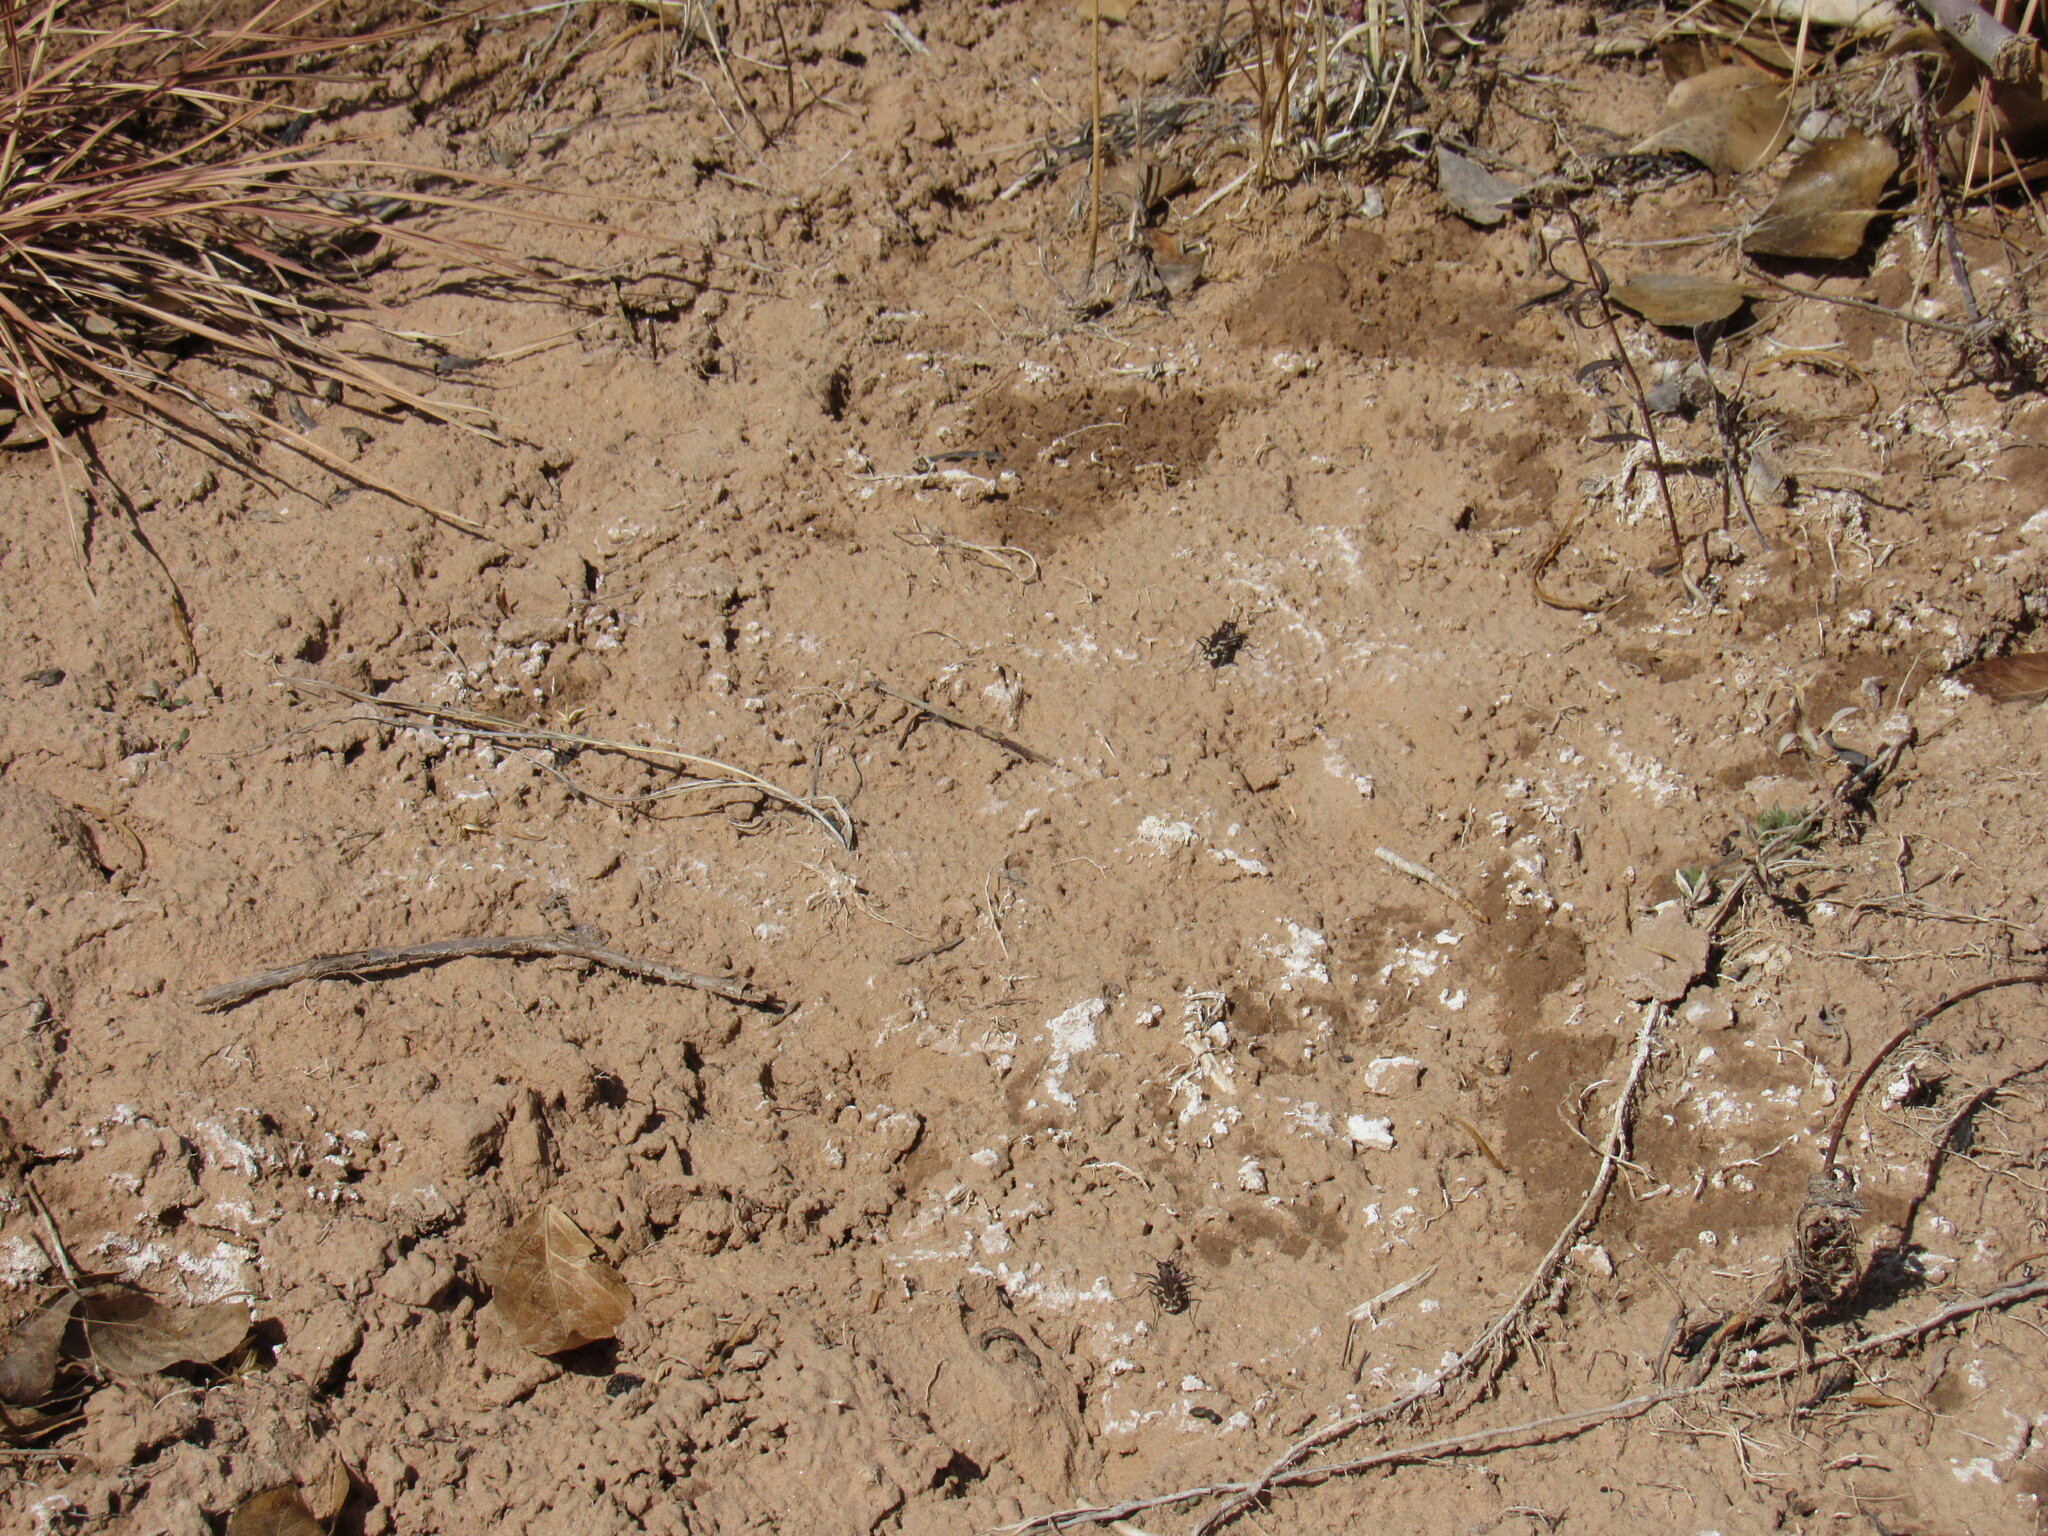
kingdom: Animalia
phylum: Arthropoda
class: Insecta
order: Coleoptera
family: Carabidae
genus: Cicindela
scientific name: Cicindela tranquebarica
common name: Oblique-lined tiger beetle
